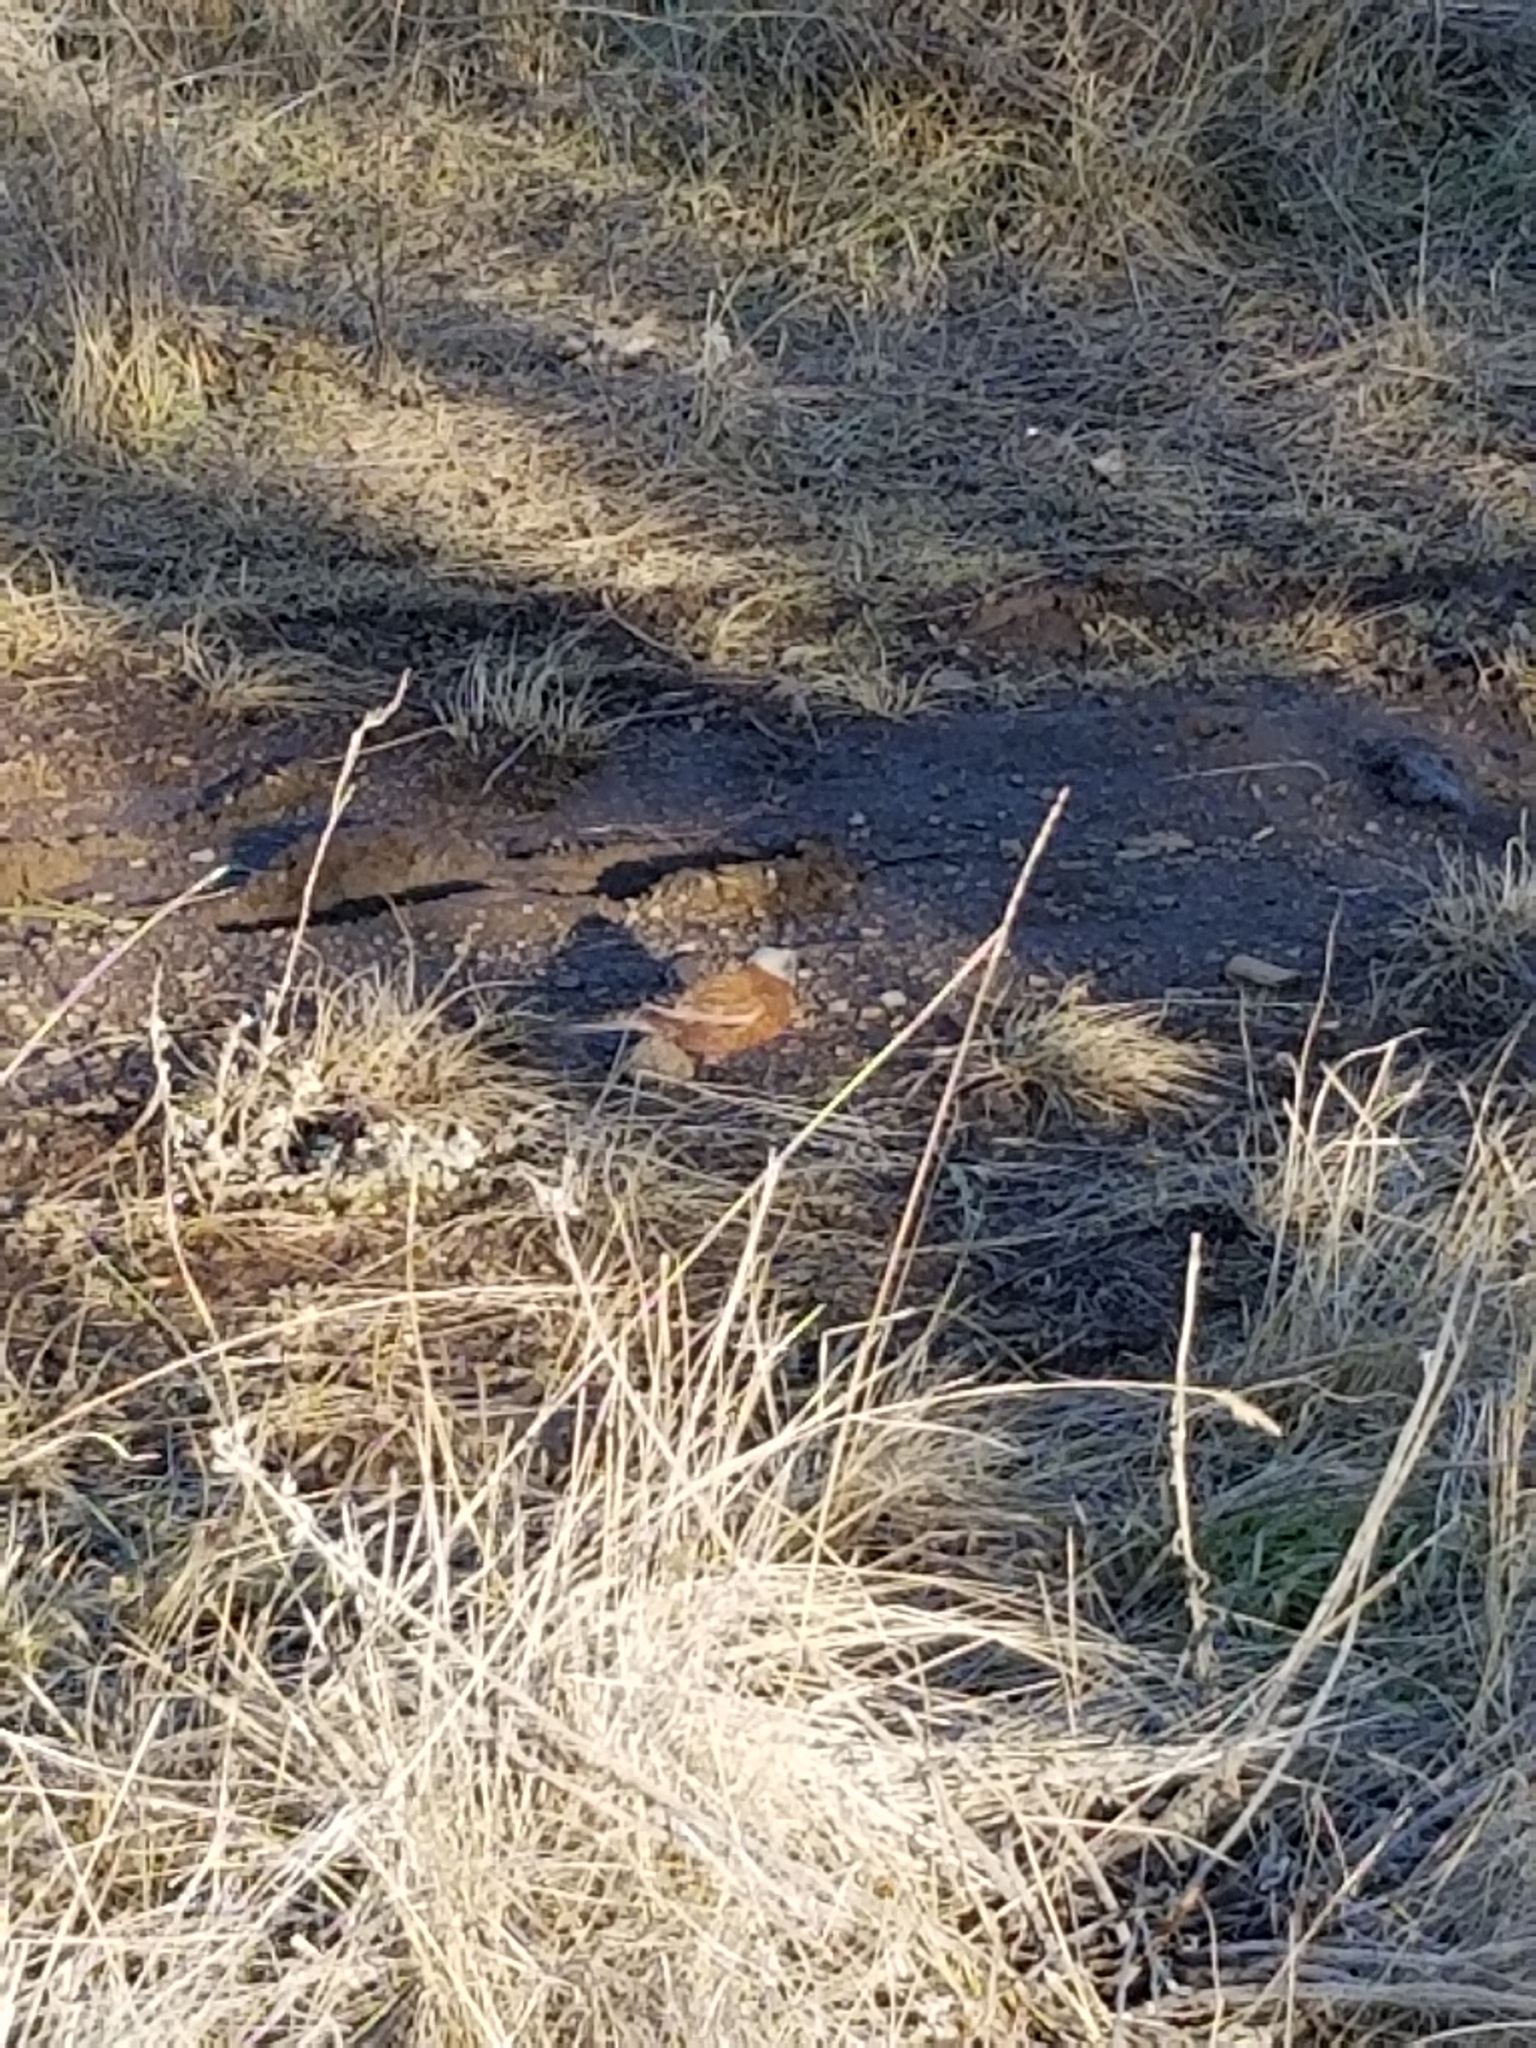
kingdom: Animalia
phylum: Chordata
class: Aves
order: Passeriformes
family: Fringillidae
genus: Leucosticte
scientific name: Leucosticte tephrocotis
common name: Gray-crowned rosy-finch
